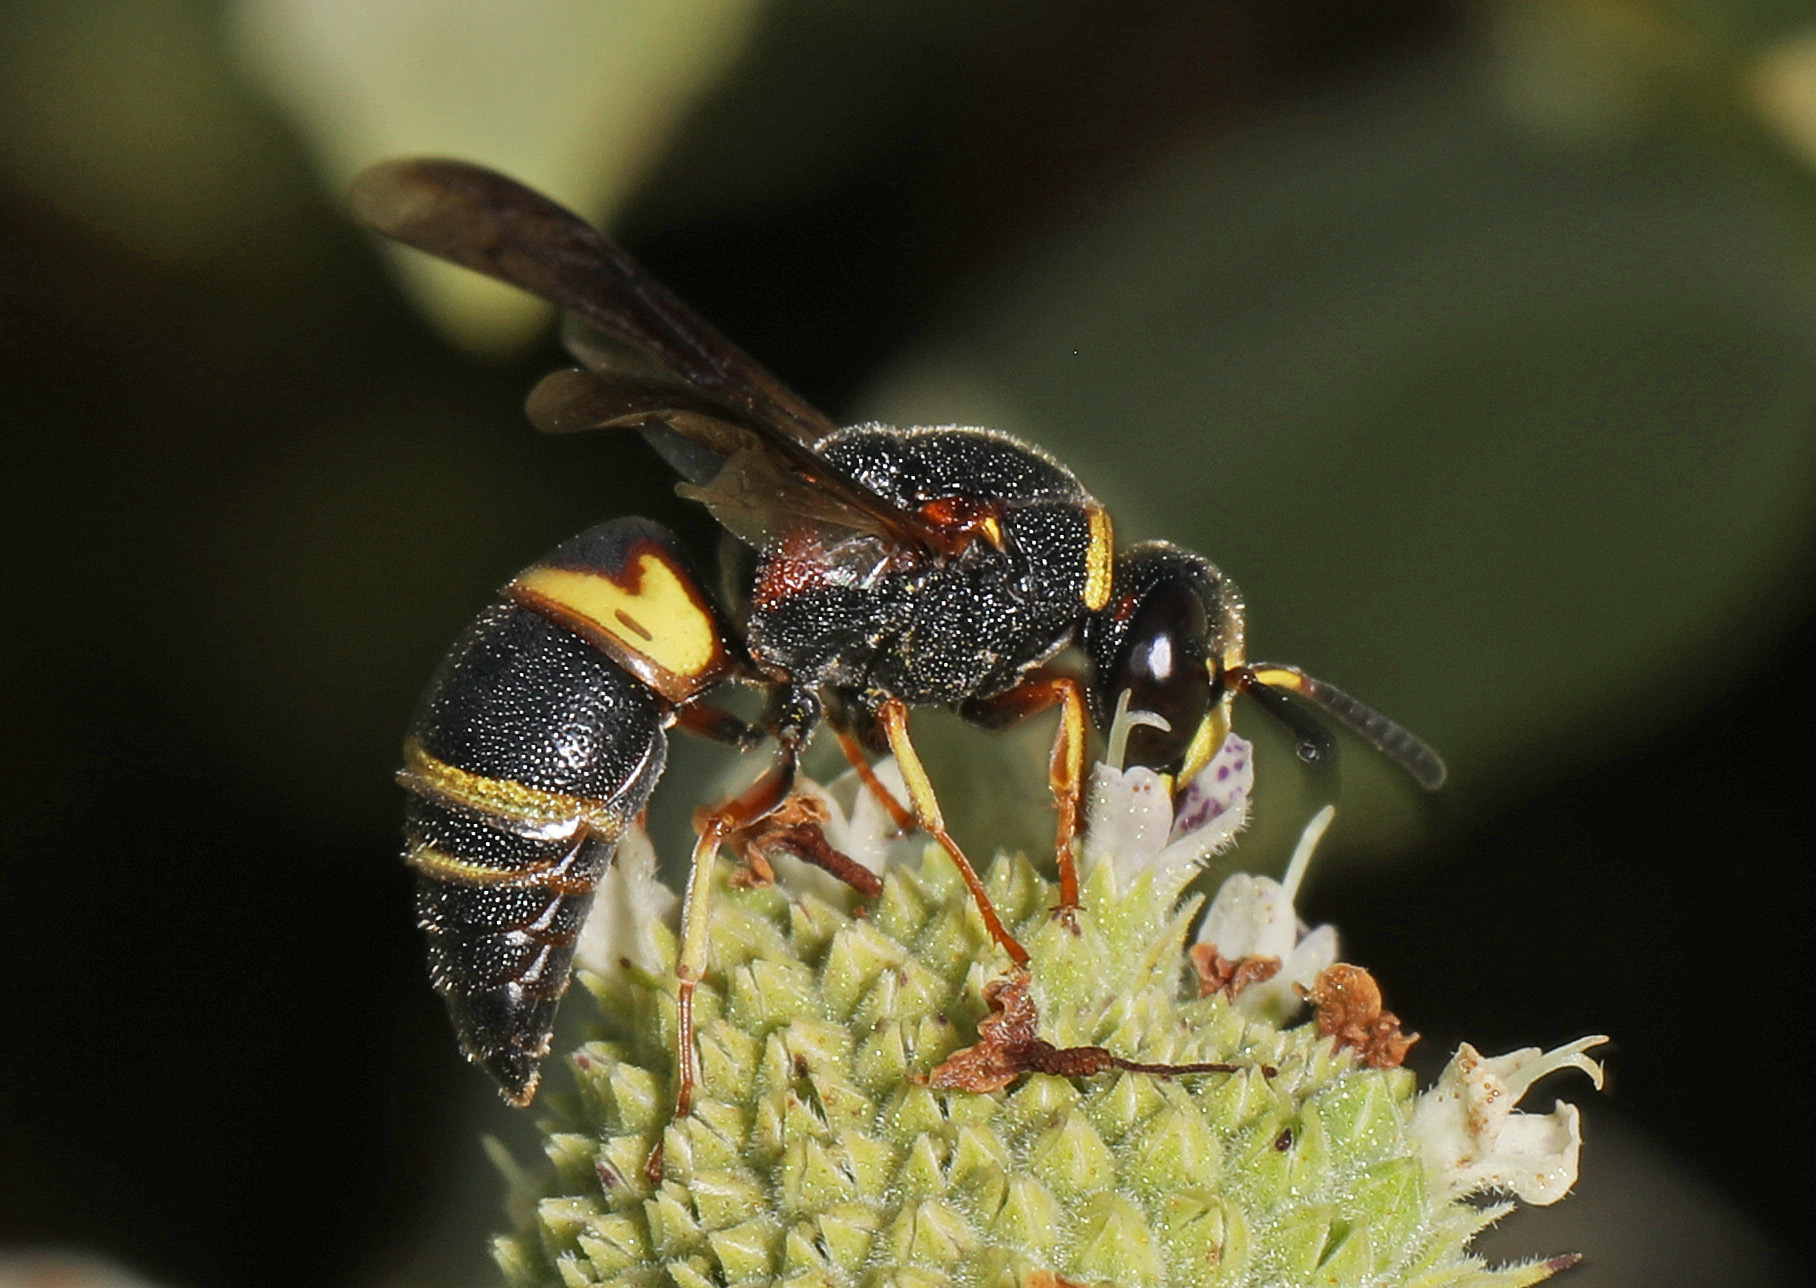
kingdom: Animalia
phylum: Arthropoda
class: Insecta
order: Hymenoptera
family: Eumenidae
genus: Euodynerus
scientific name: Euodynerus hidalgo
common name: Wasp
